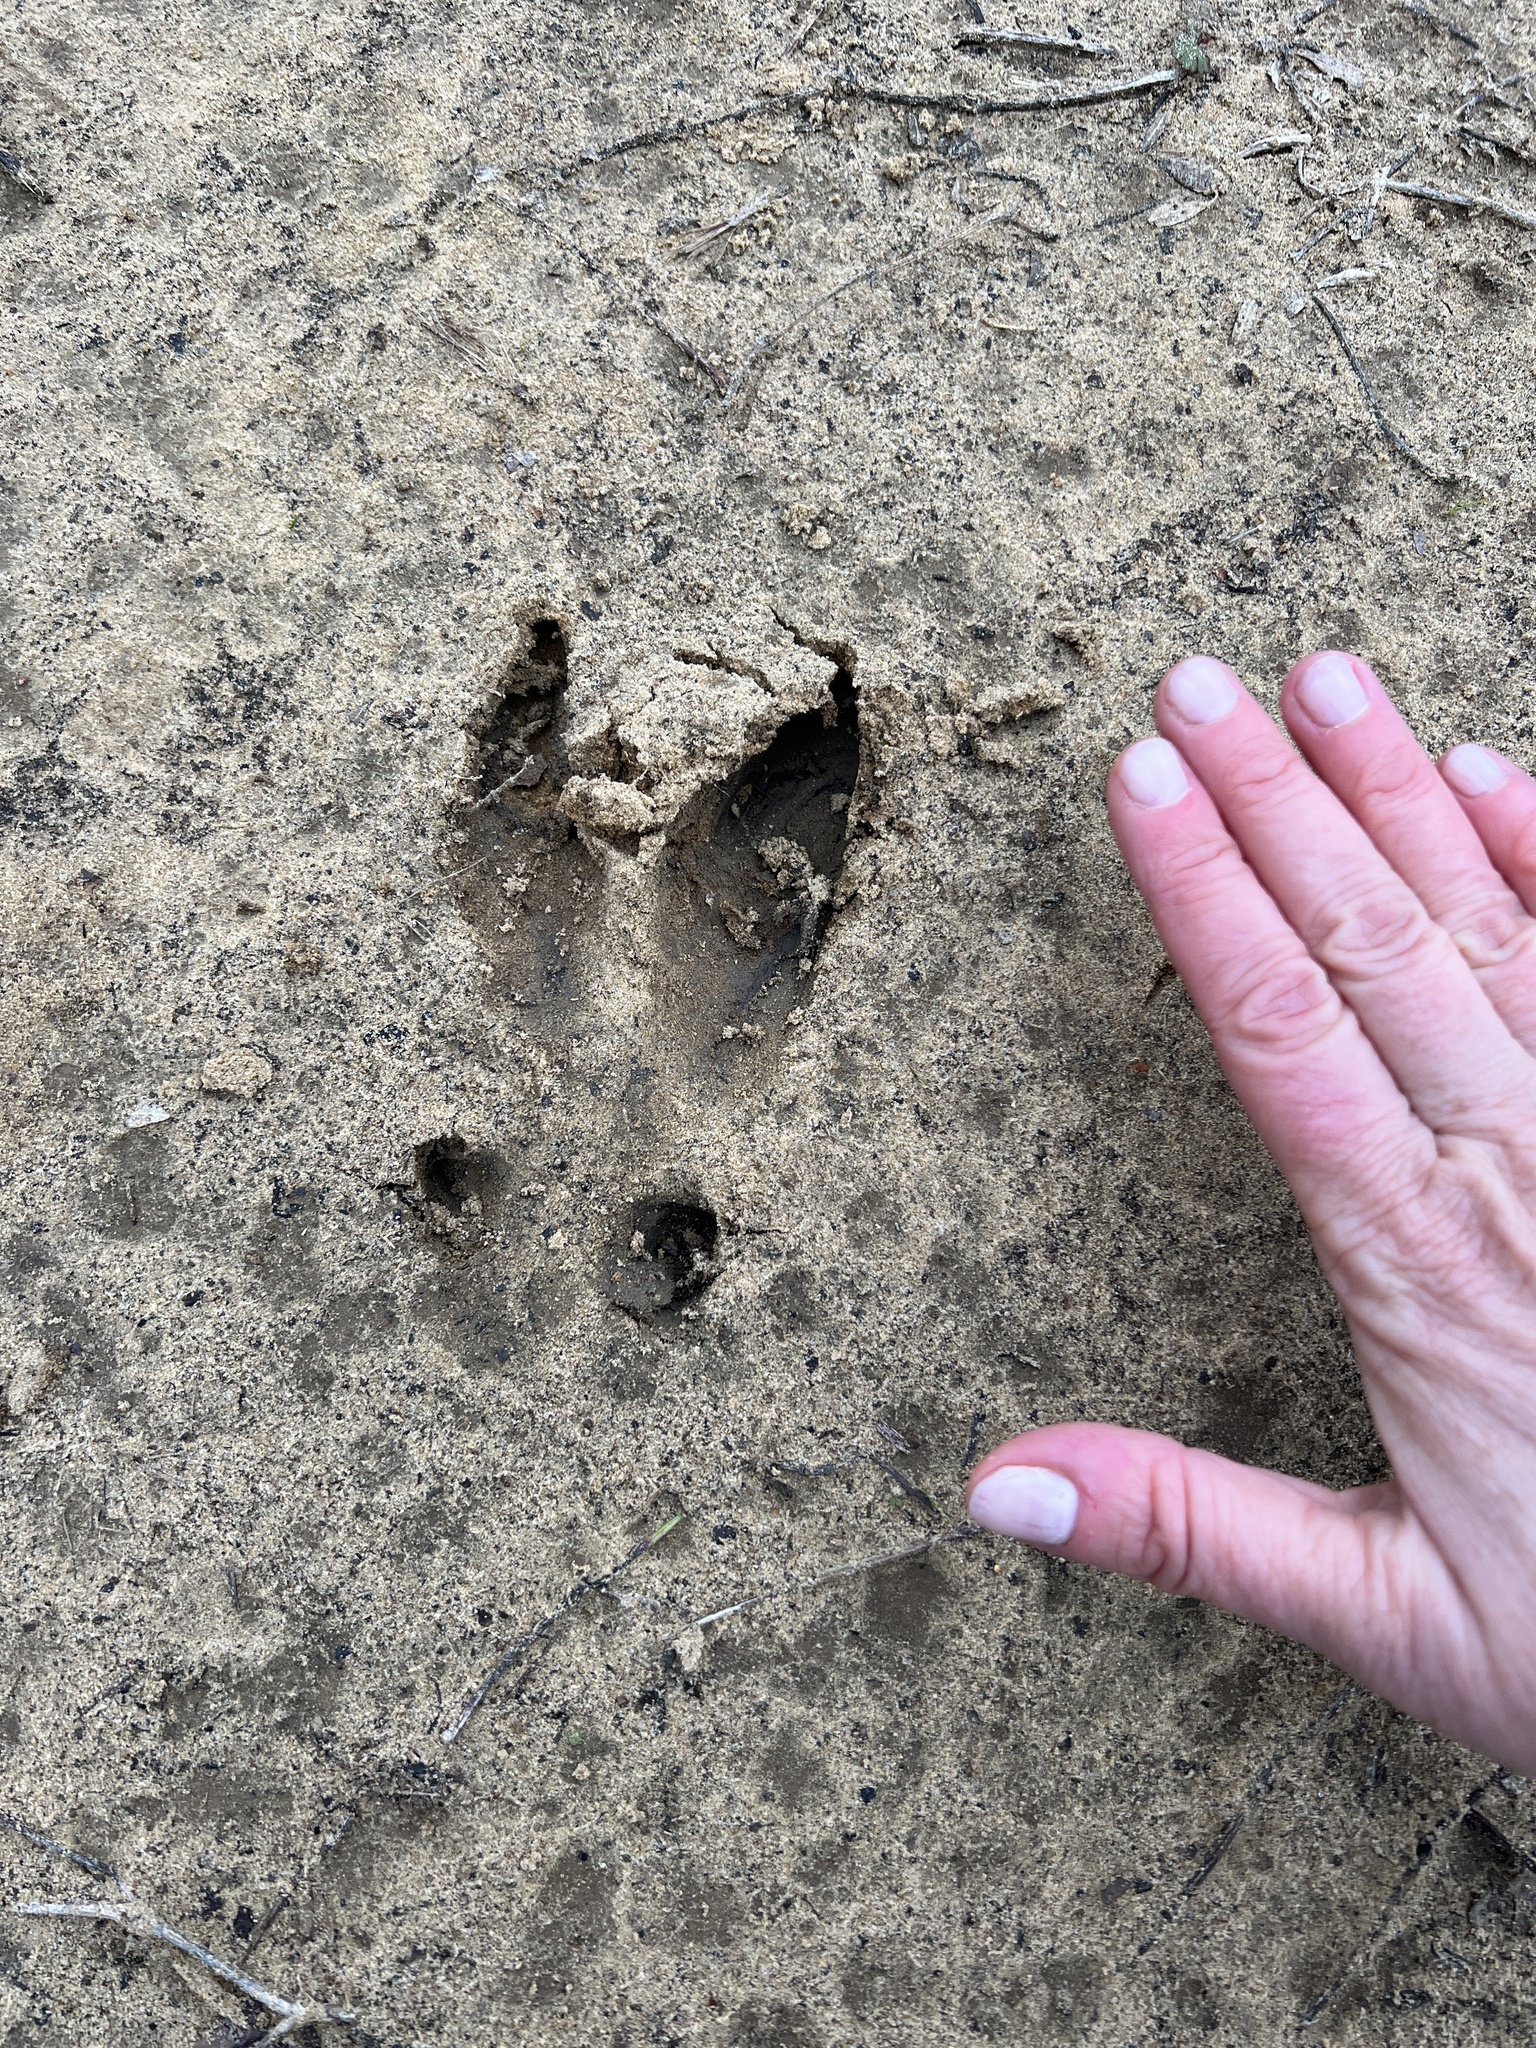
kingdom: Animalia
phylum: Chordata
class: Mammalia
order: Artiodactyla
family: Suidae
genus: Sus
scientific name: Sus scrofa
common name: Wild boar
